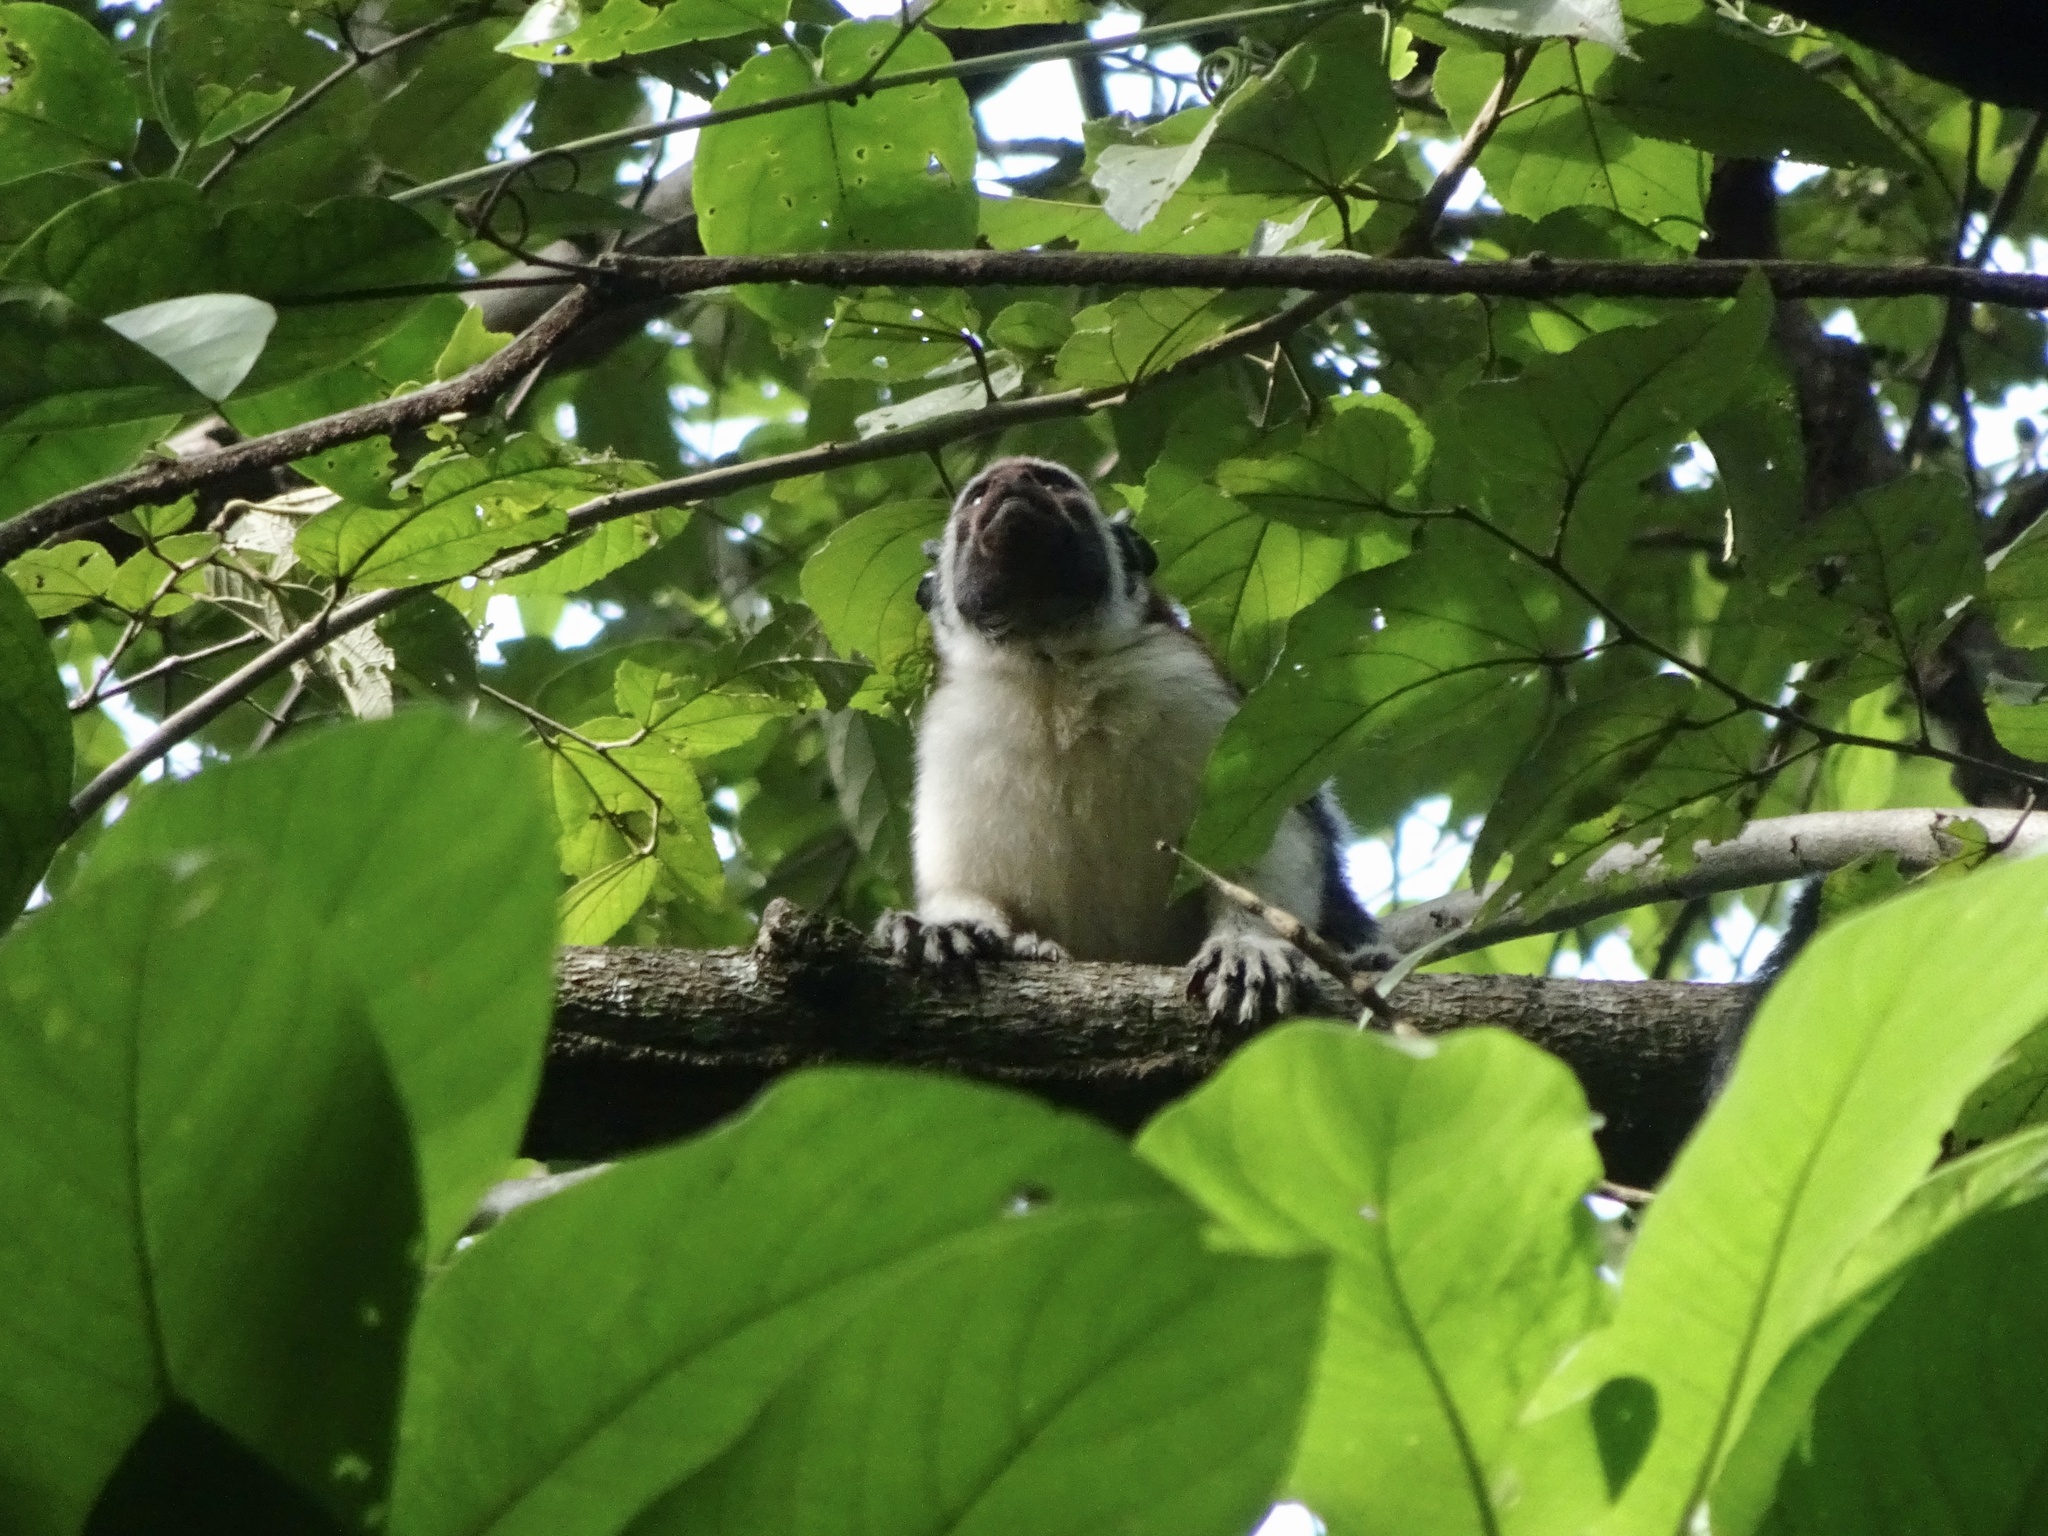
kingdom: Animalia
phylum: Chordata
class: Mammalia
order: Primates
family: Callitrichidae
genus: Saguinus
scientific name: Saguinus geoffroyi
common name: Geoffroy s tamarin
